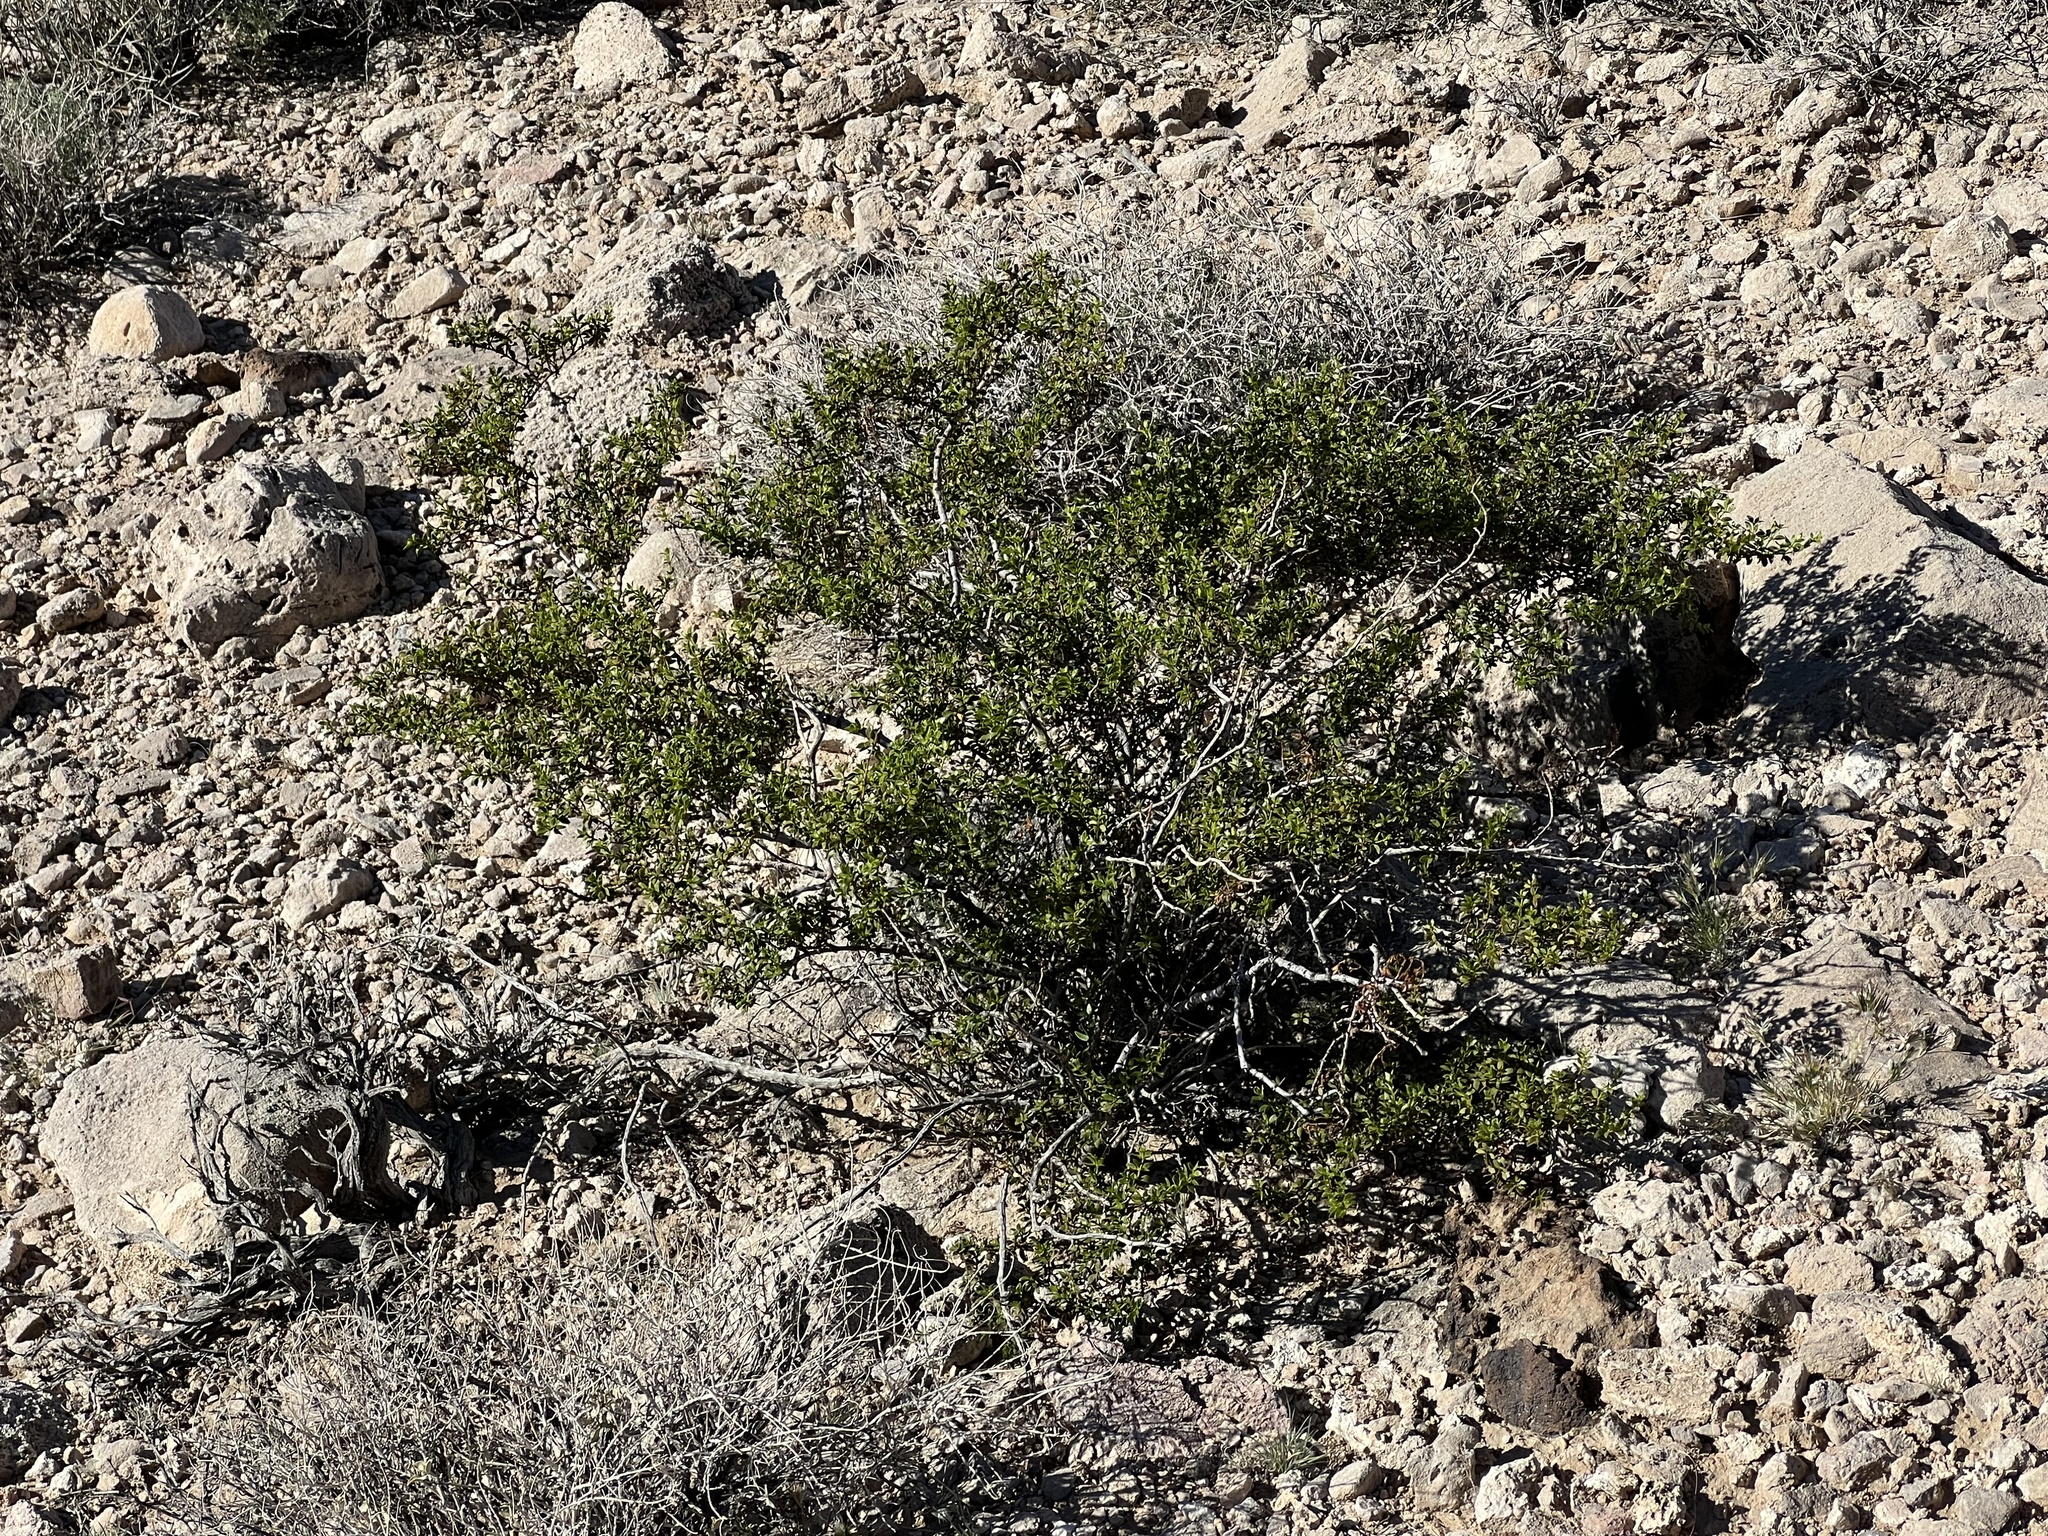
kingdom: Plantae
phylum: Tracheophyta
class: Magnoliopsida
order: Zygophyllales
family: Zygophyllaceae
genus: Larrea
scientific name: Larrea tridentata
